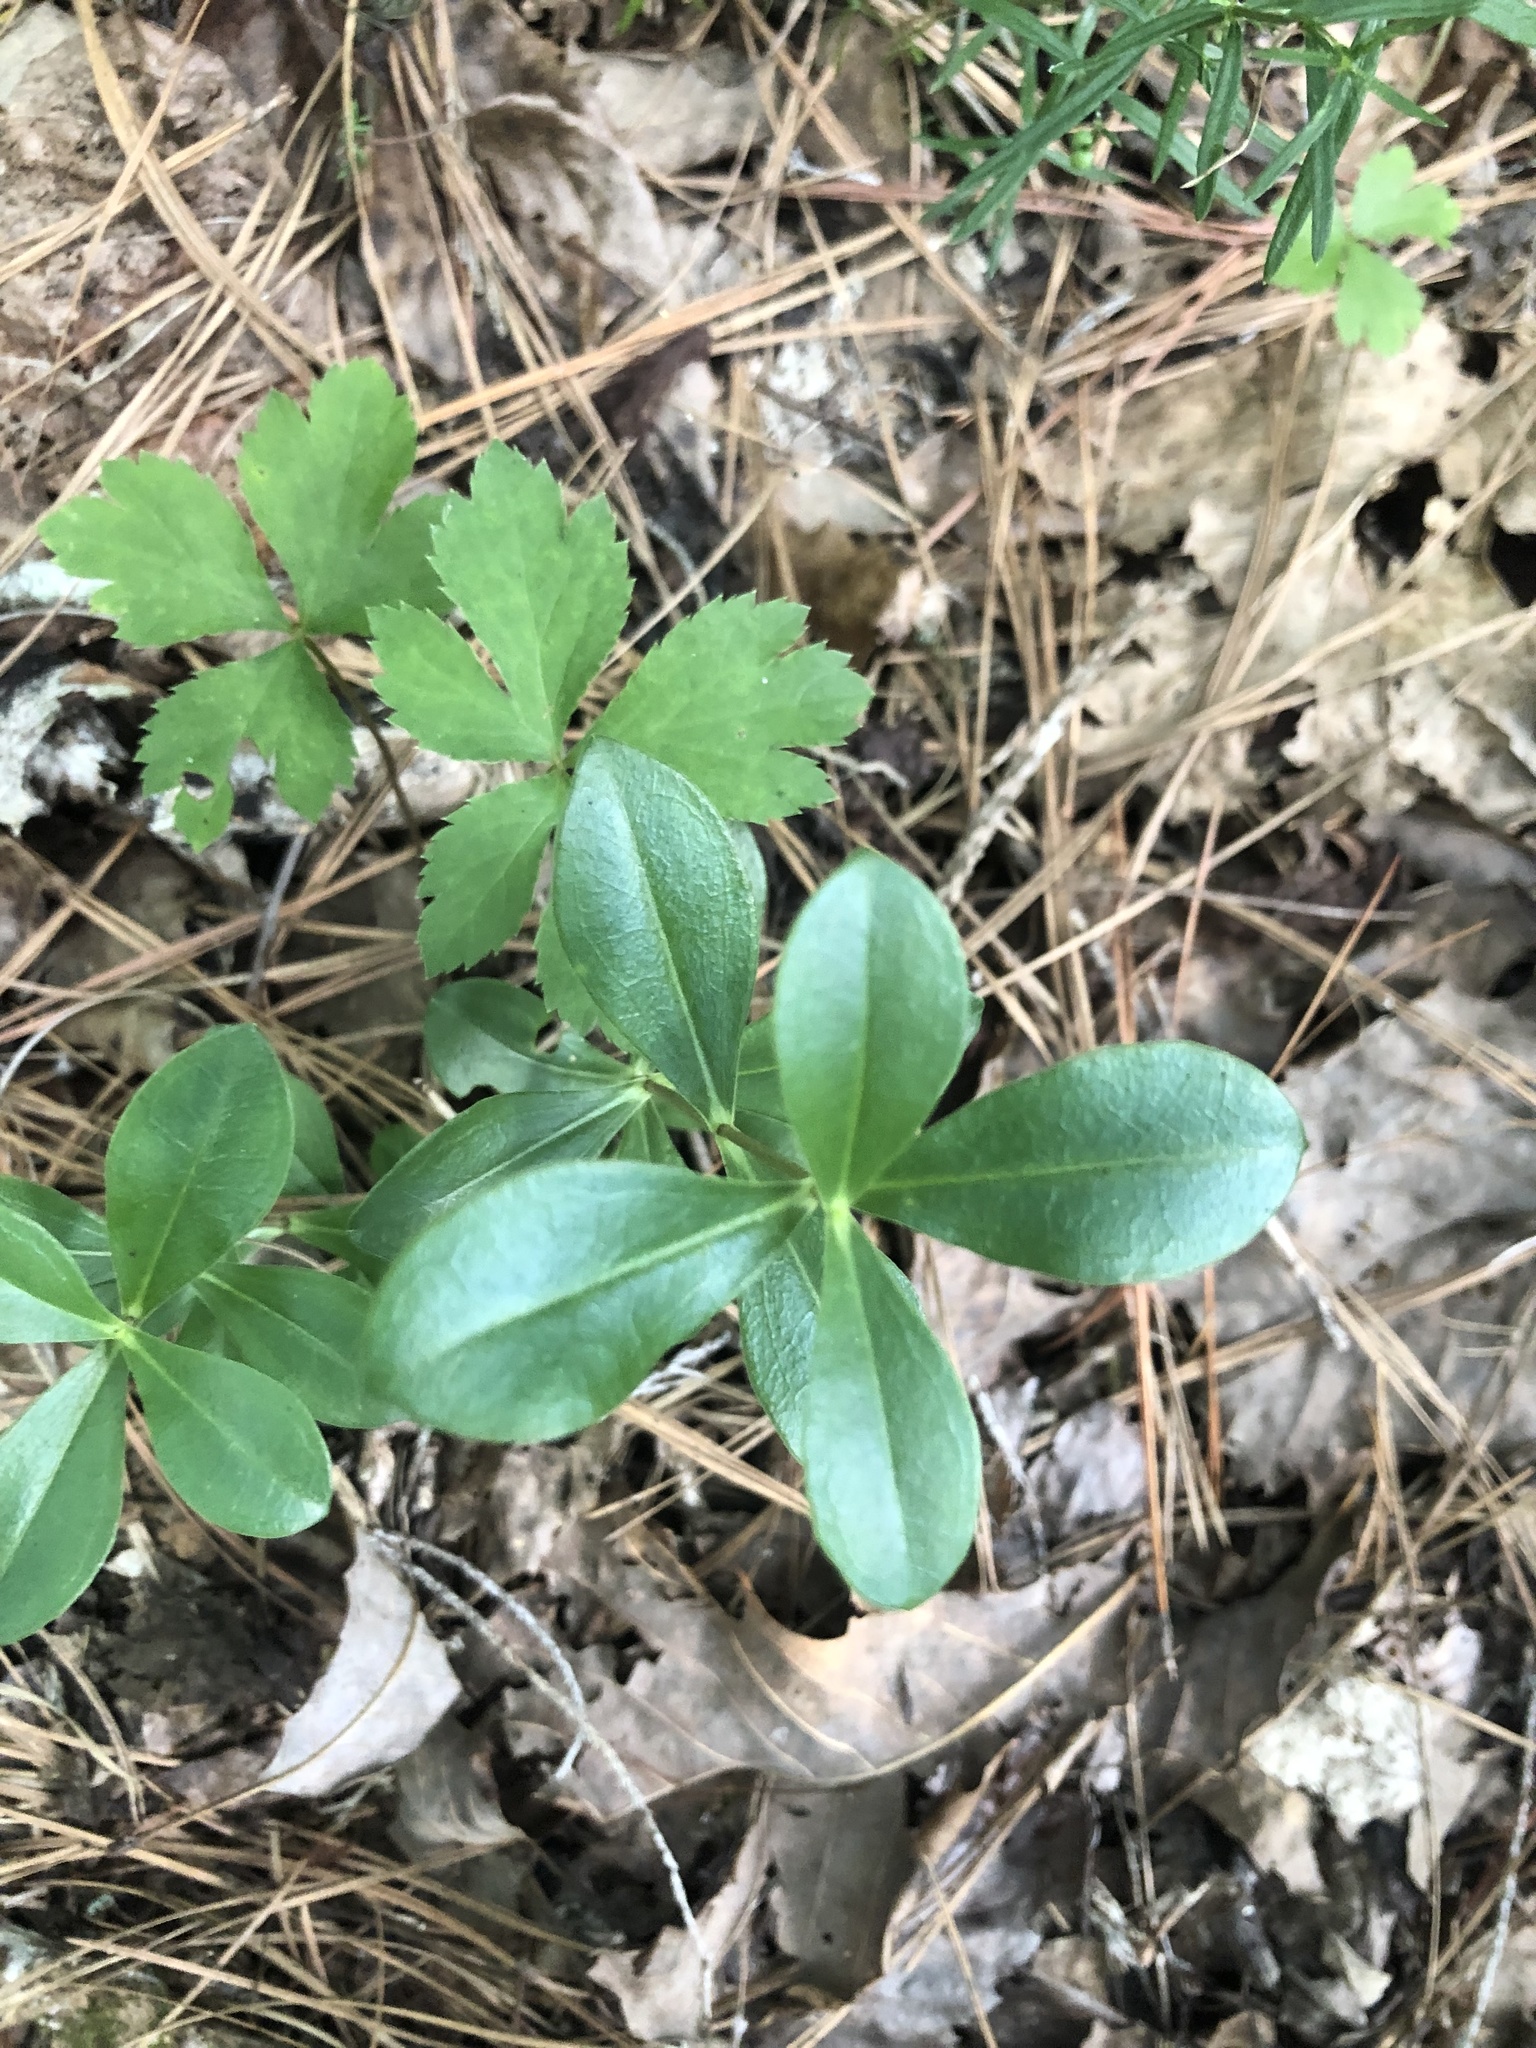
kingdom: Plantae
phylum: Tracheophyta
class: Magnoliopsida
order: Gentianales
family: Gentianaceae
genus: Gentiana
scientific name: Gentiana villosa
